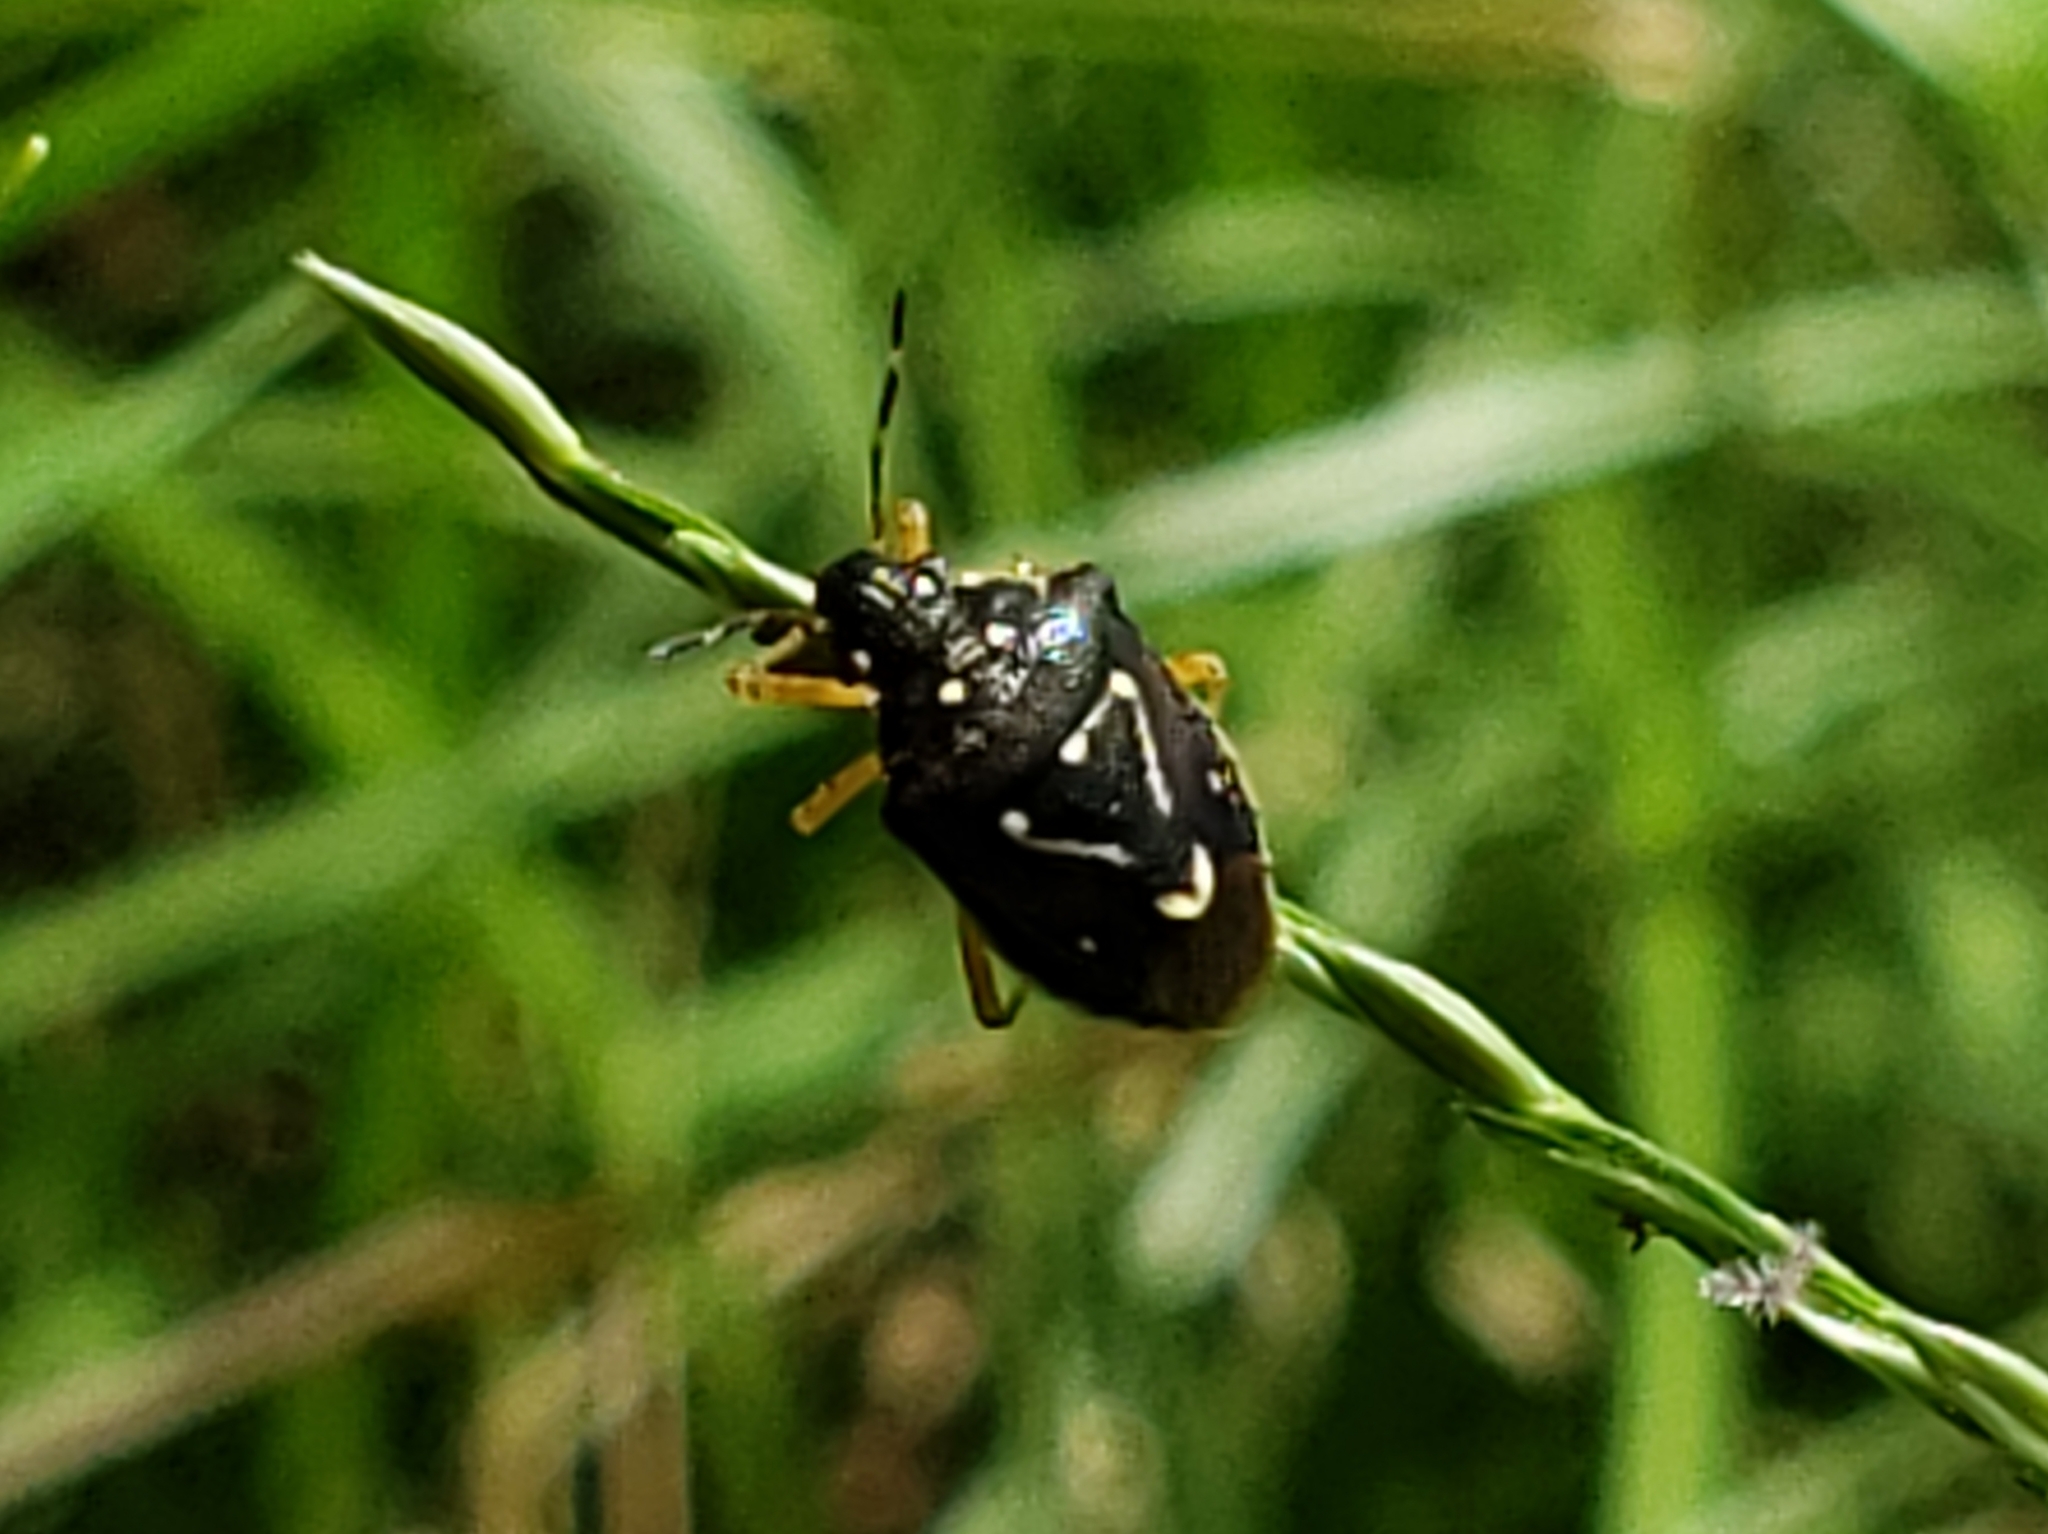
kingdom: Animalia
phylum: Arthropoda
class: Insecta
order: Hemiptera
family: Pentatomidae
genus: Mormidea
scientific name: Mormidea pama
